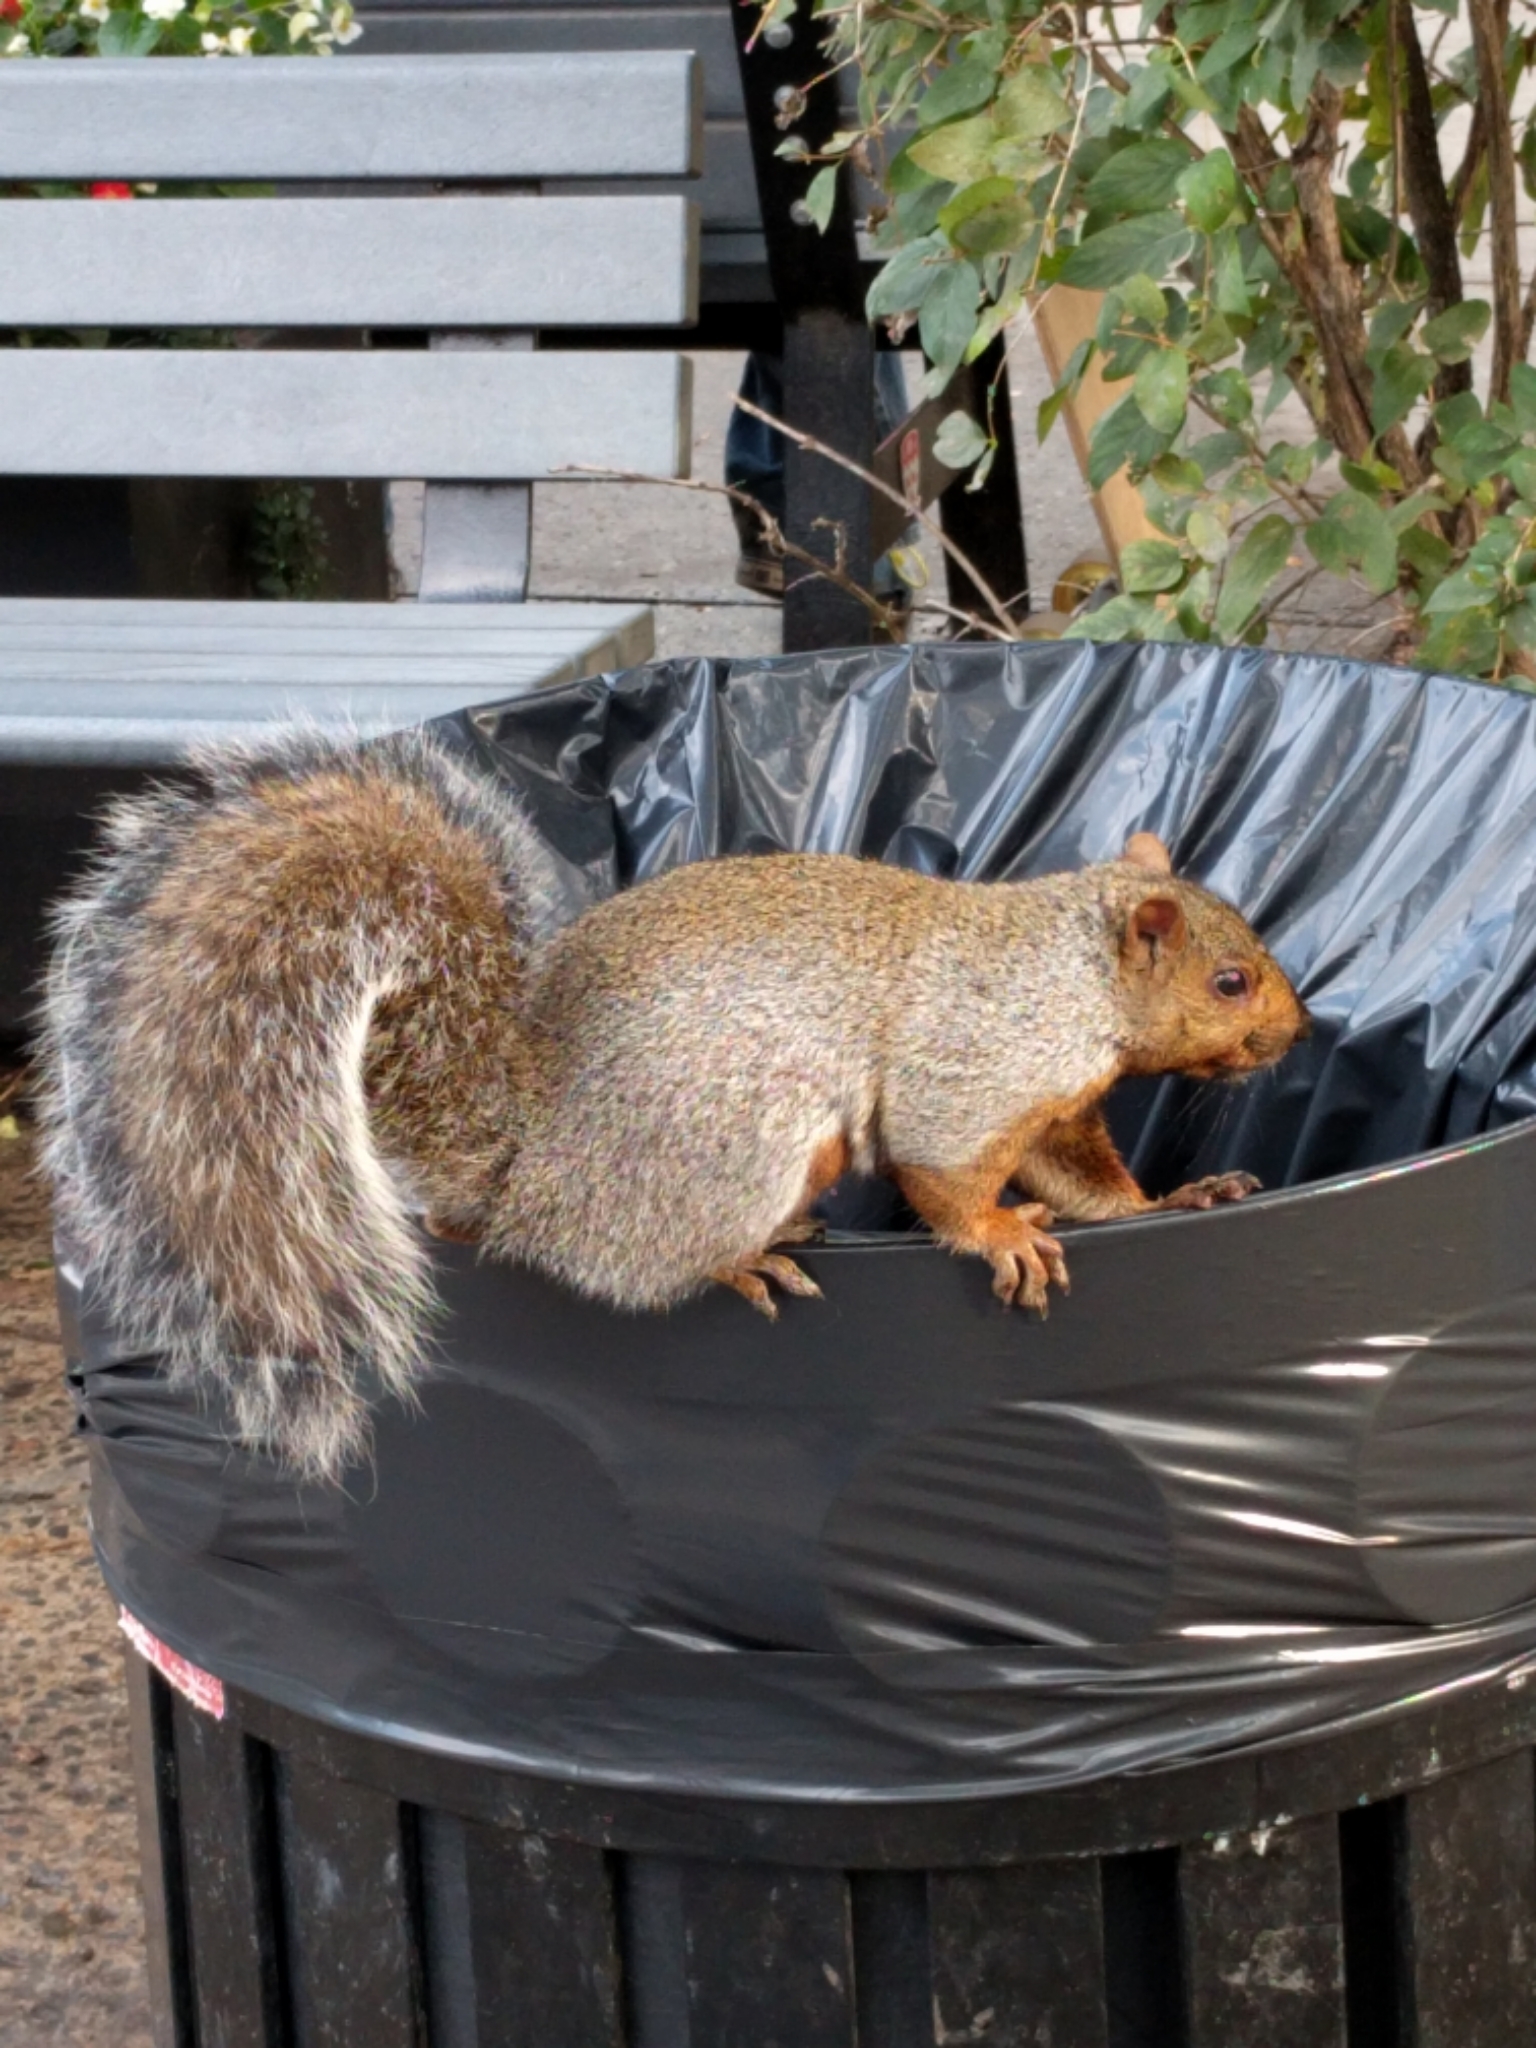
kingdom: Animalia
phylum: Chordata
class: Mammalia
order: Rodentia
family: Sciuridae
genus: Sciurus
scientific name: Sciurus carolinensis
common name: Eastern gray squirrel
